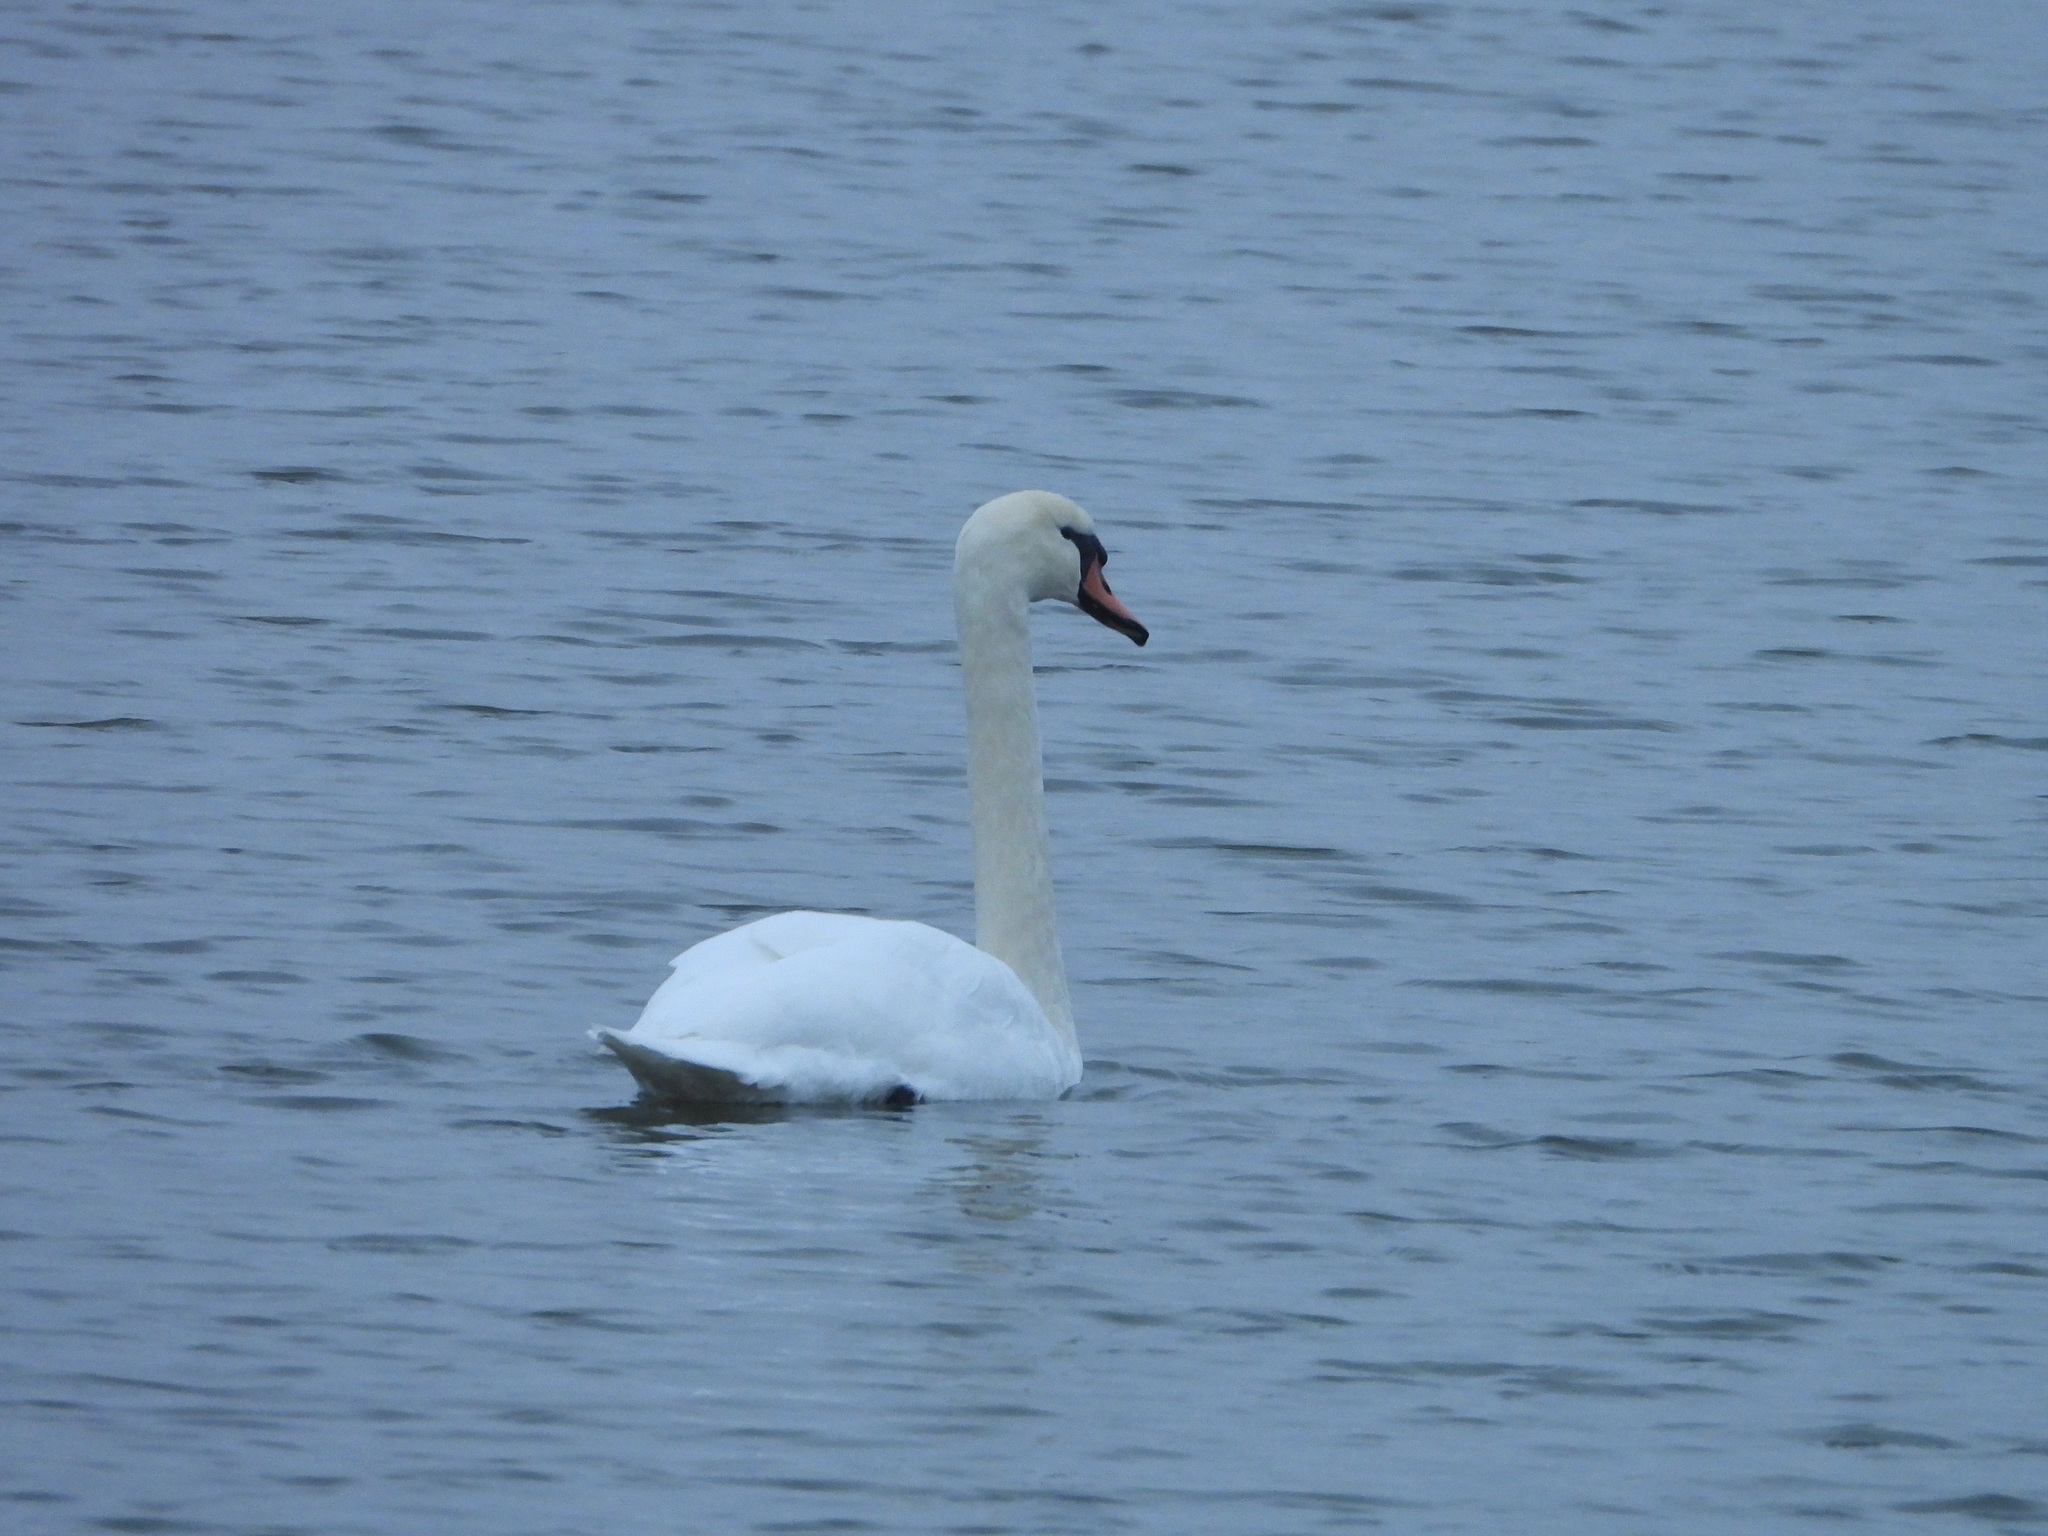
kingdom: Animalia
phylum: Chordata
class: Aves
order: Anseriformes
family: Anatidae
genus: Cygnus
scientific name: Cygnus olor
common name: Mute swan
